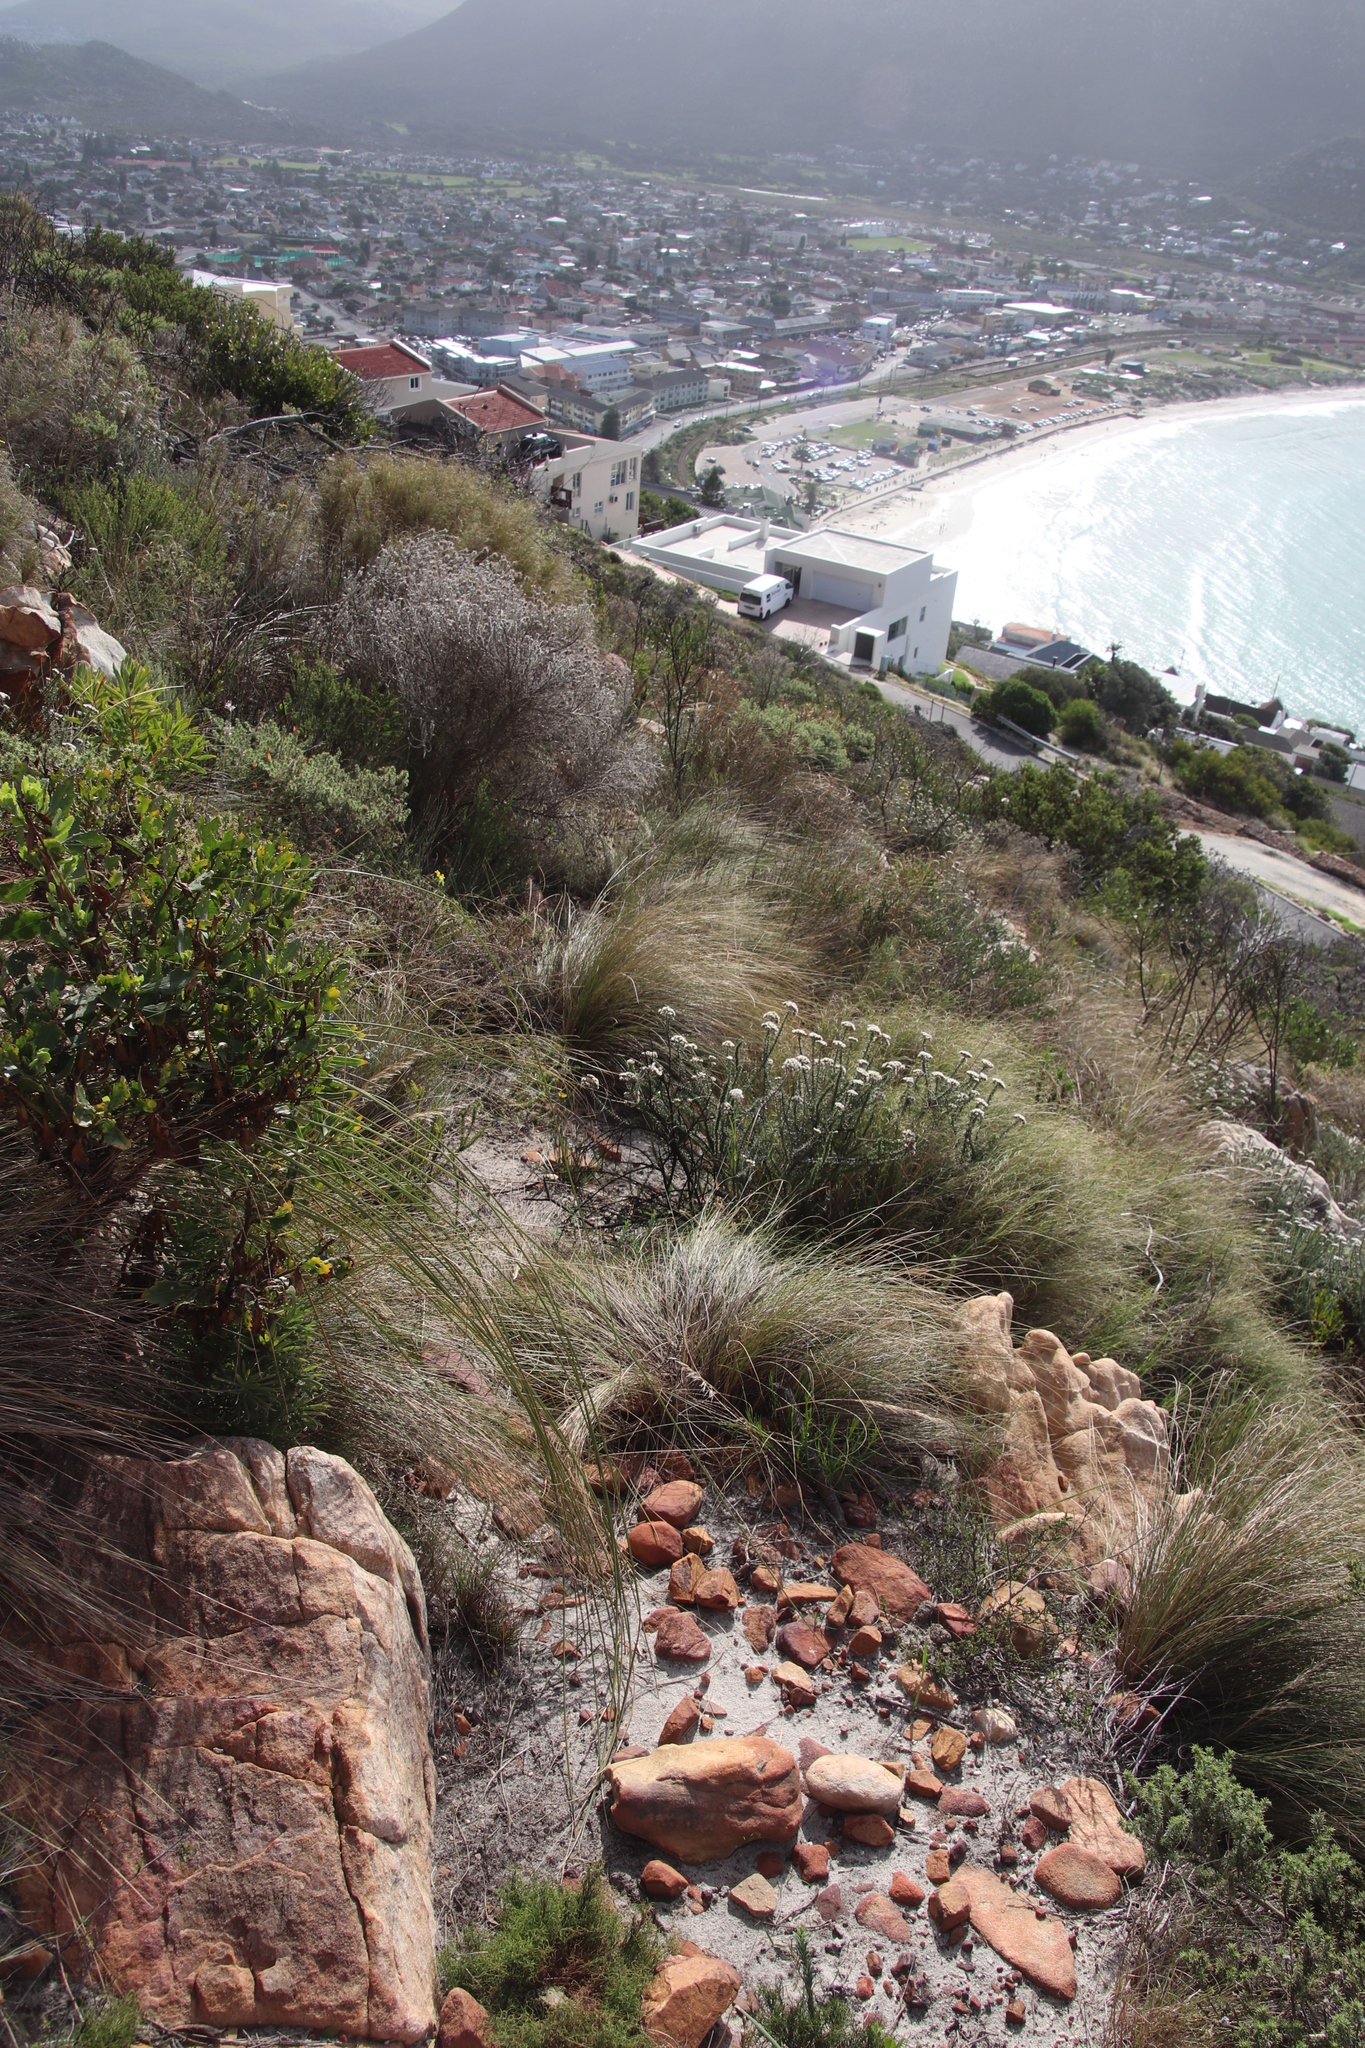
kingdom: Plantae
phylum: Tracheophyta
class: Liliopsida
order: Poales
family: Poaceae
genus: Stipagrostis
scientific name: Stipagrostis zeyheri
